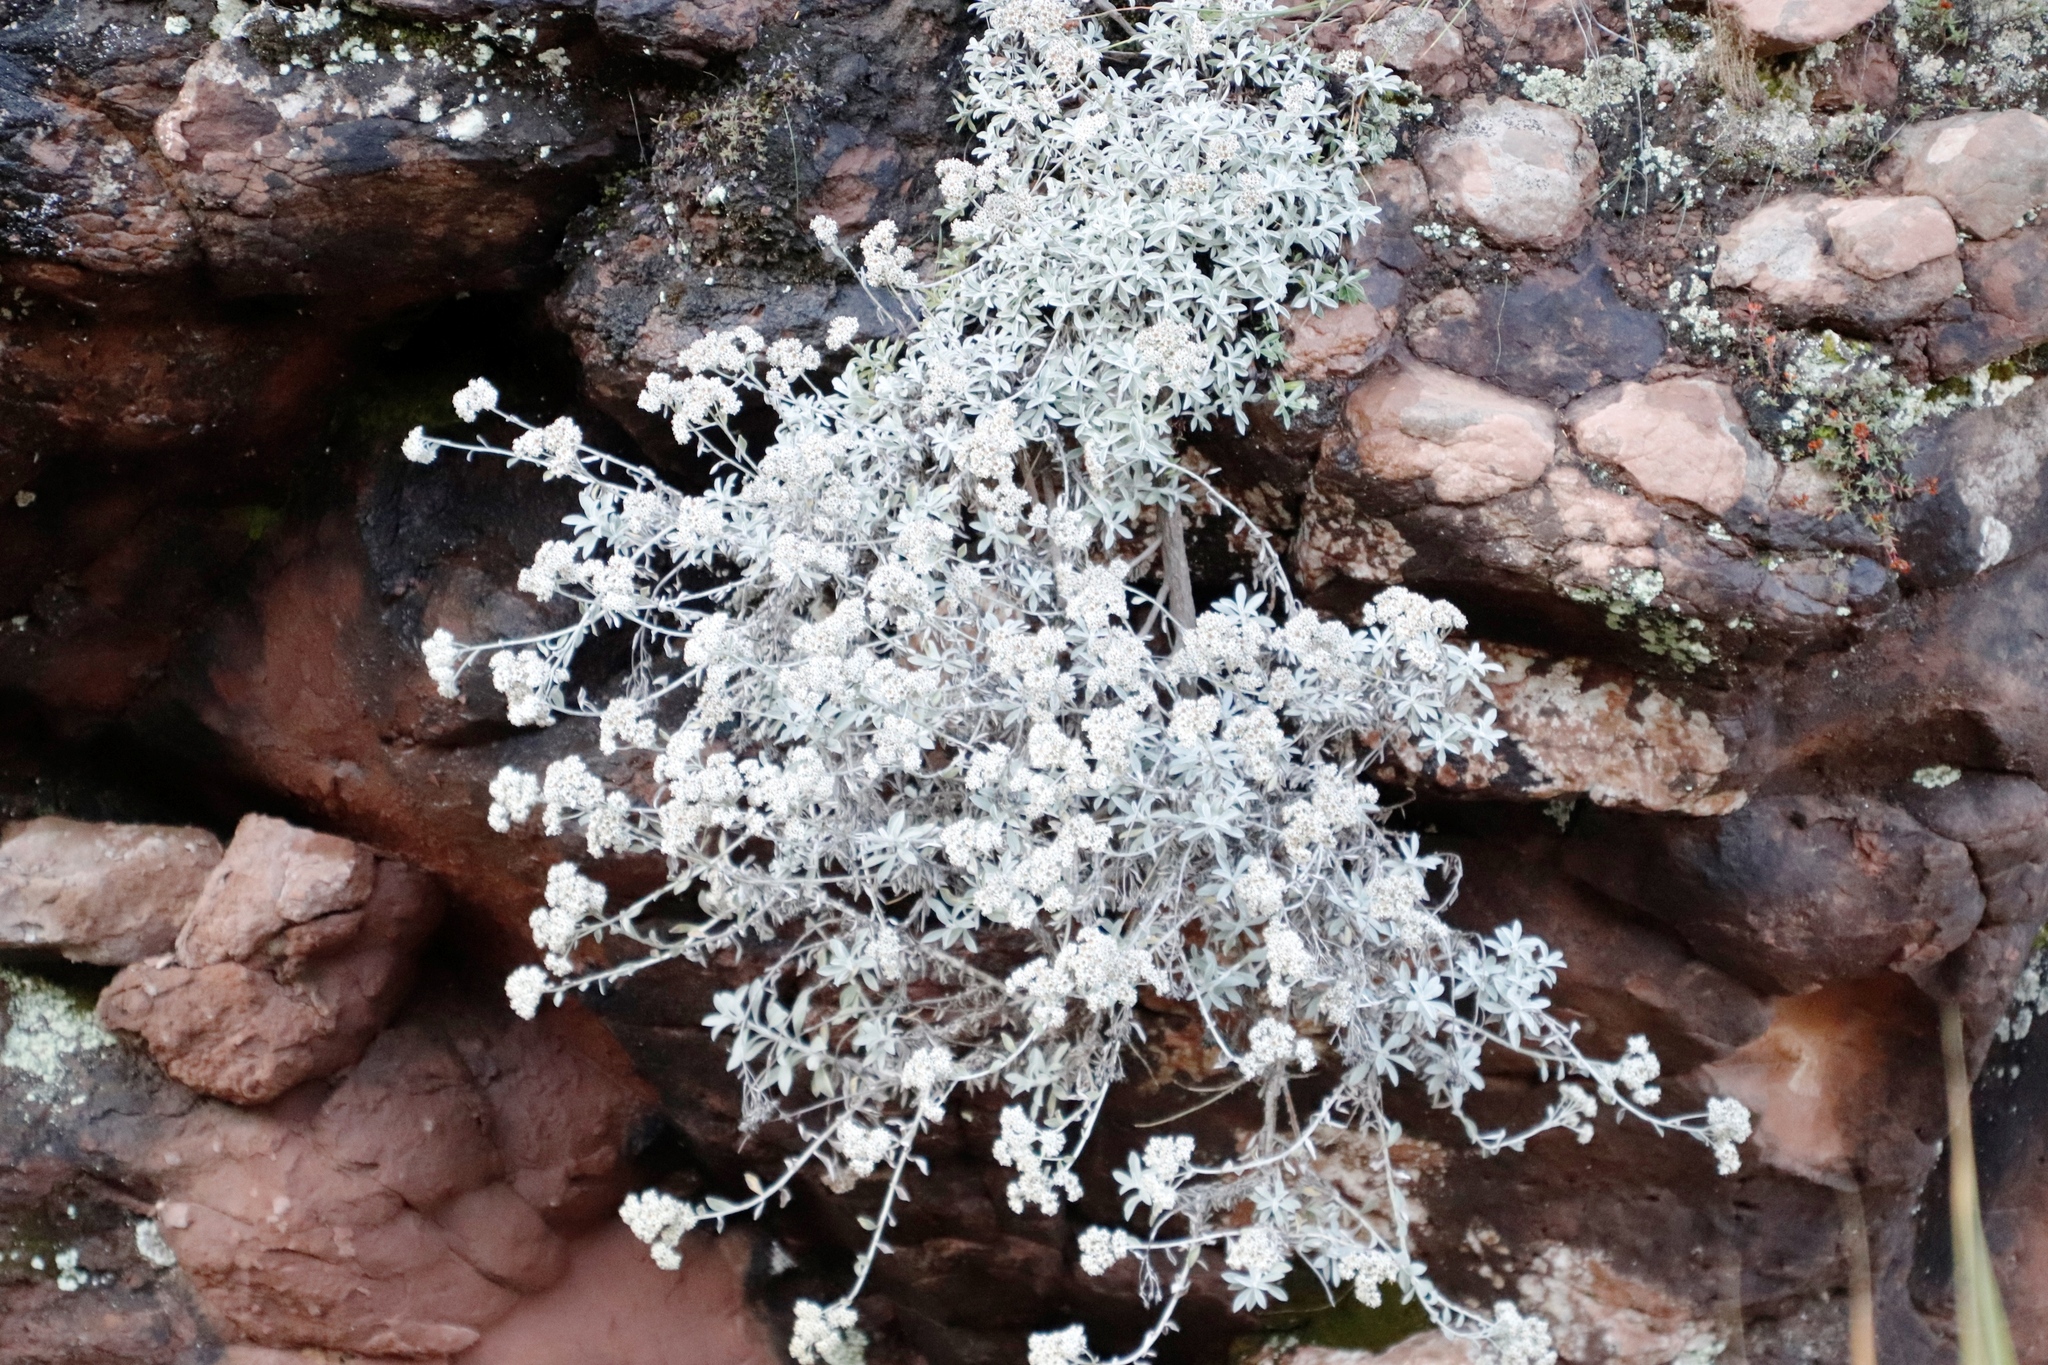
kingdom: Plantae
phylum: Tracheophyta
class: Magnoliopsida
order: Asterales
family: Asteraceae
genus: Helichrysum
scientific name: Helichrysum sutherlandii
